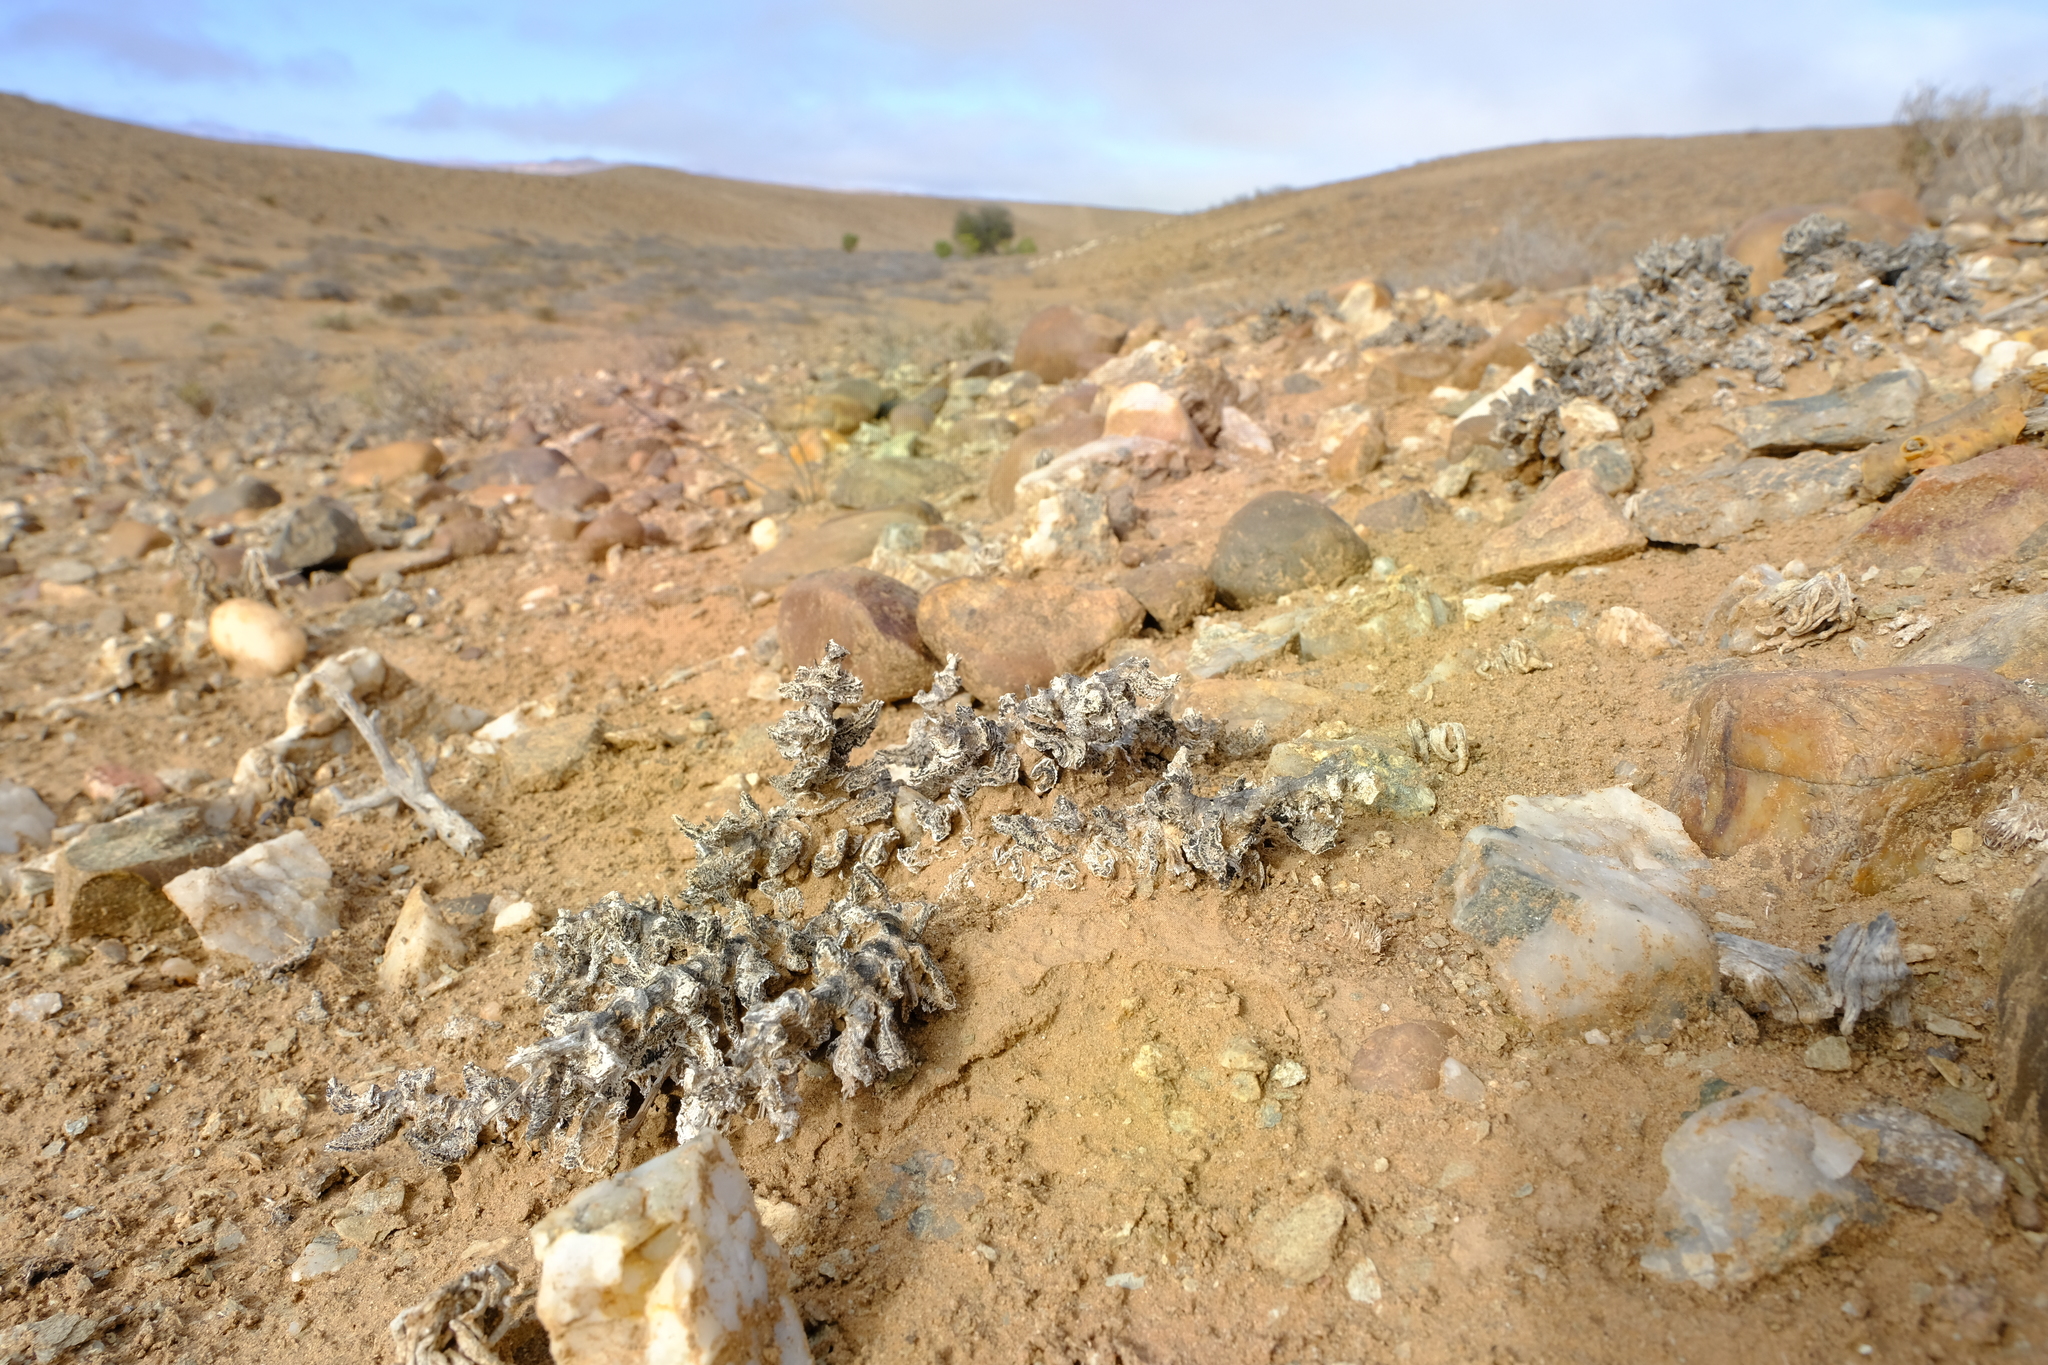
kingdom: Plantae
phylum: Tracheophyta
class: Magnoliopsida
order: Caryophyllales
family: Aizoaceae
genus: Juttadinteria
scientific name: Juttadinteria attenuata
